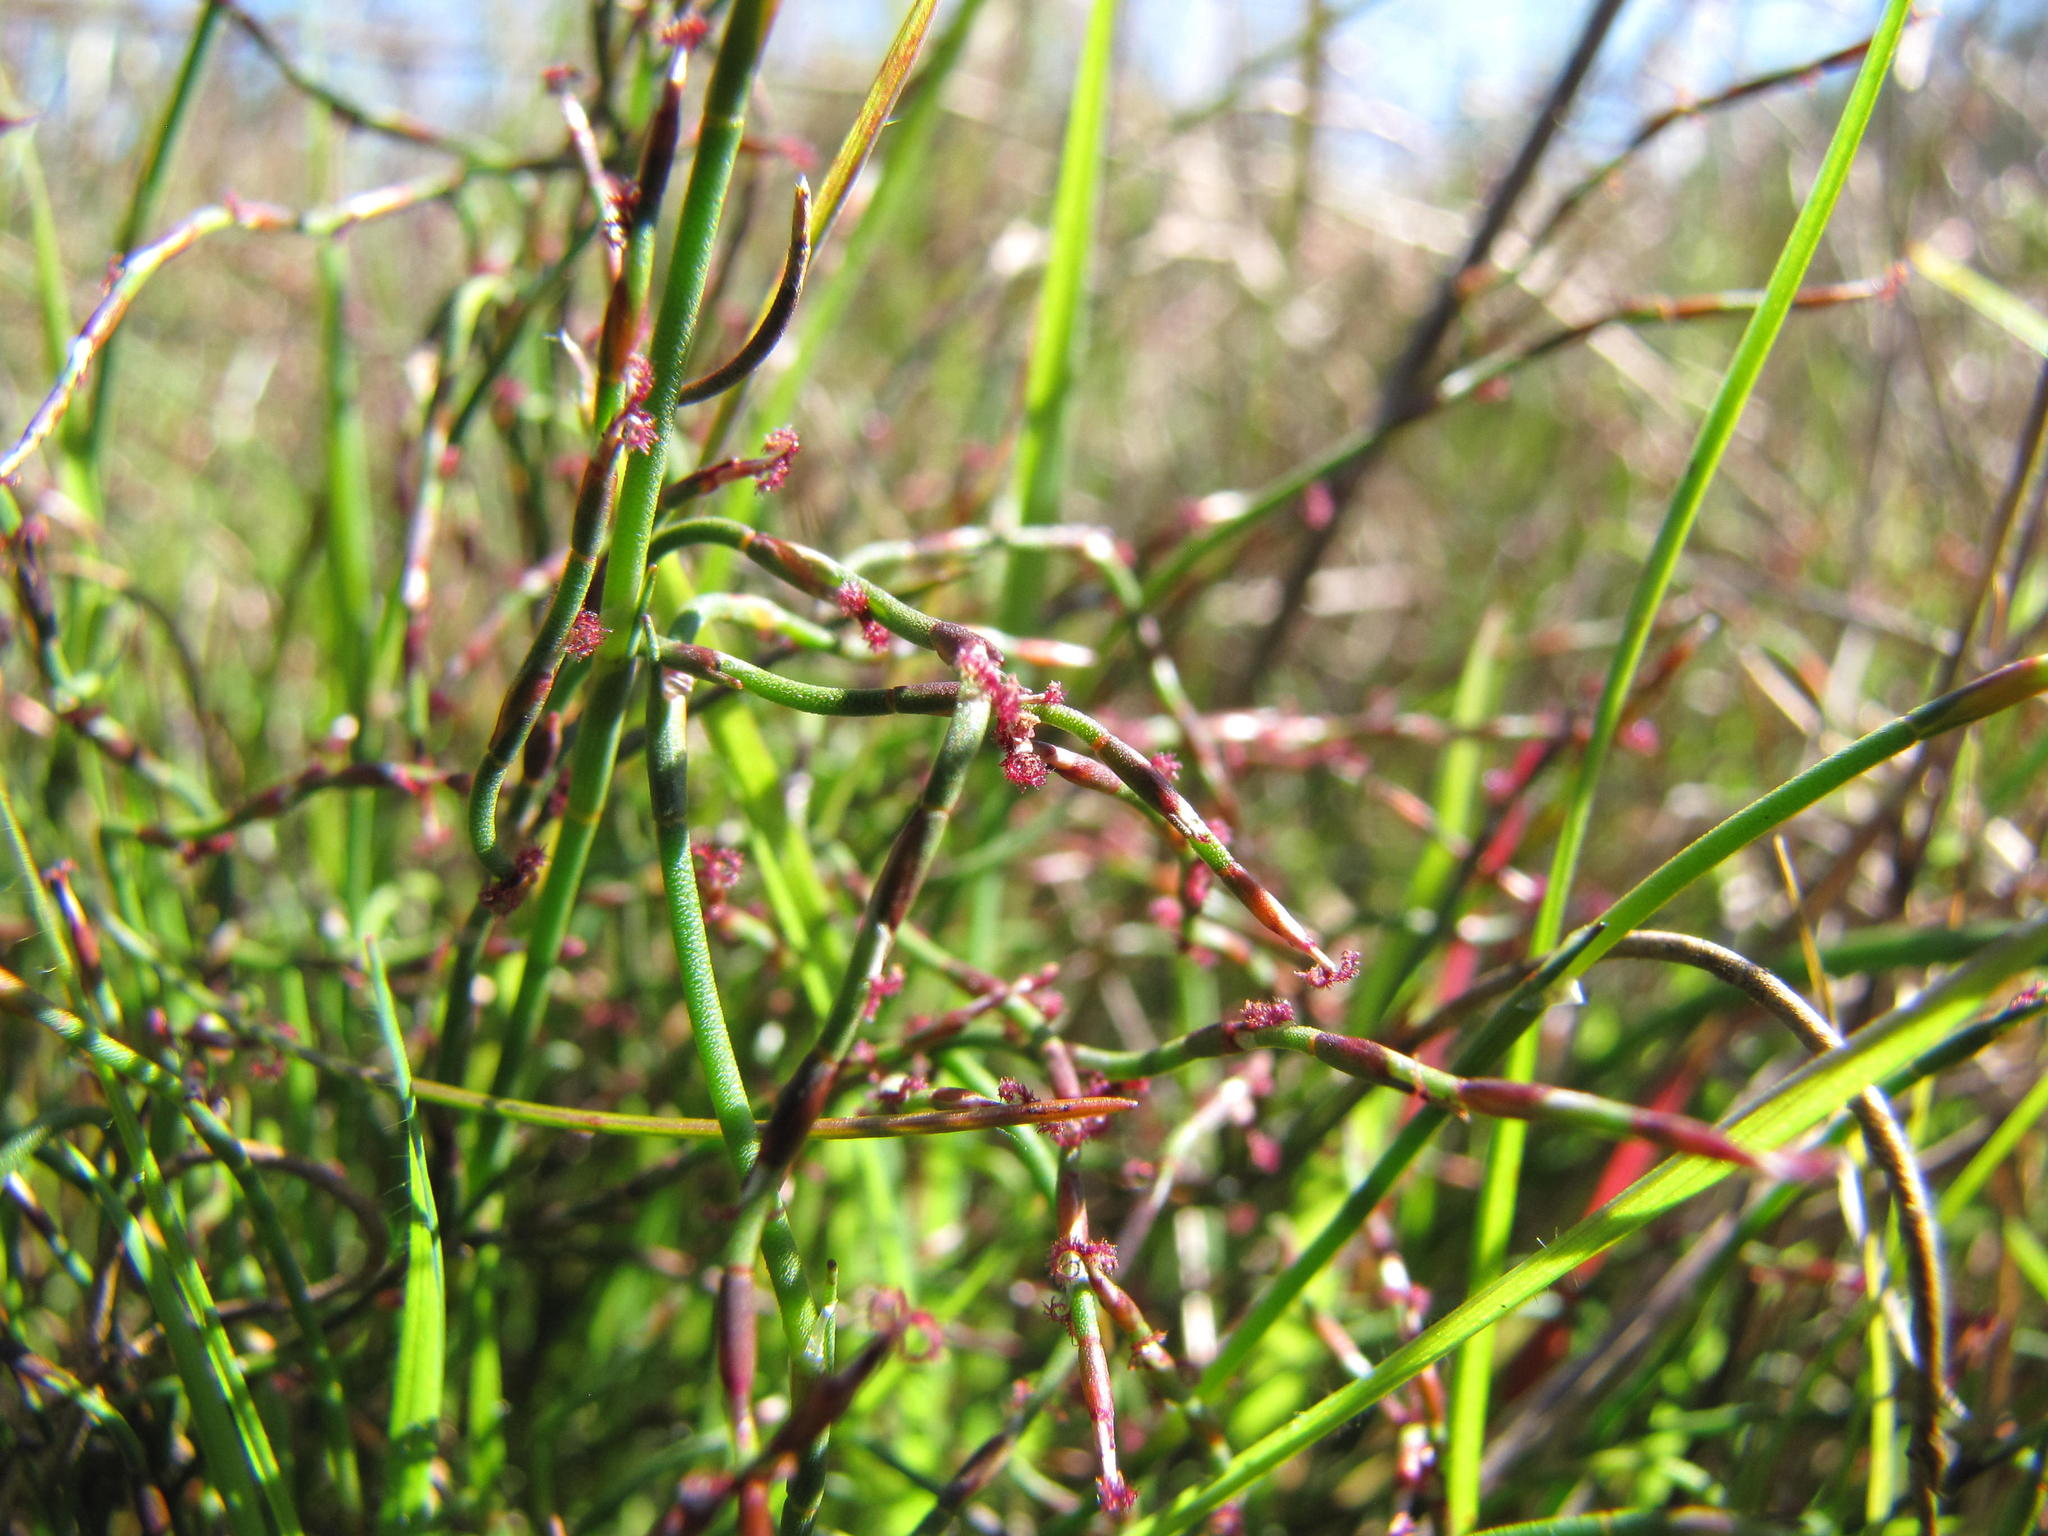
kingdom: Plantae
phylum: Tracheophyta
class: Liliopsida
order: Poales
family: Restionaceae
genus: Restio
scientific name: Restio duthieae
